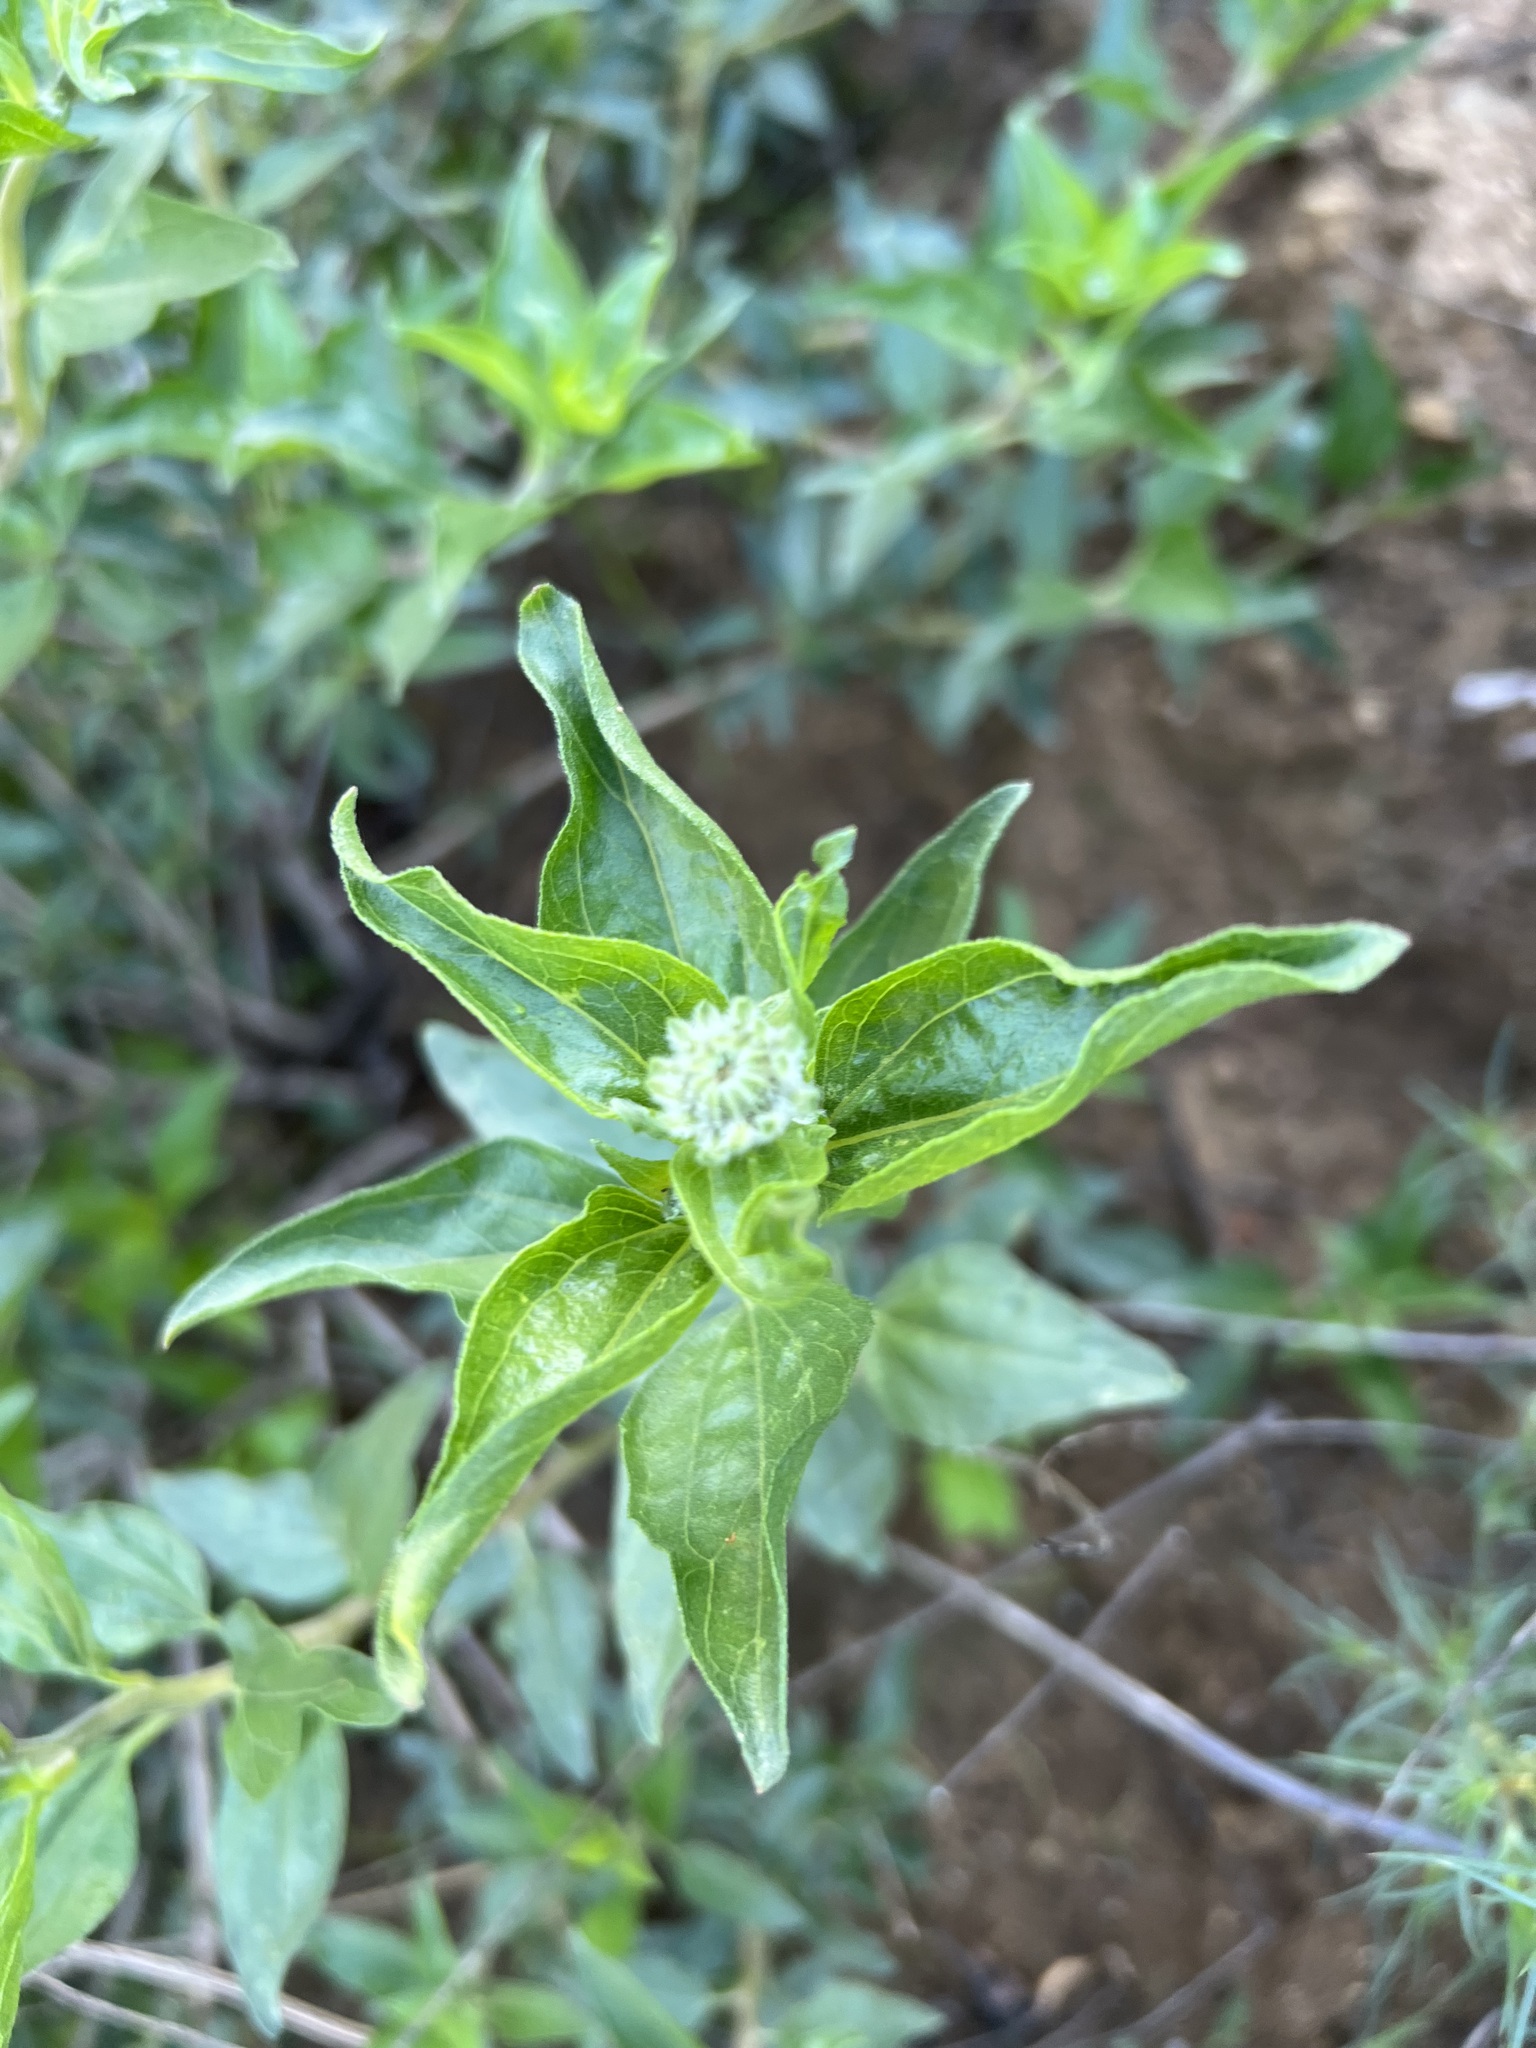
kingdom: Plantae
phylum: Tracheophyta
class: Magnoliopsida
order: Asterales
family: Asteraceae
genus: Encelia
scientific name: Encelia californica
